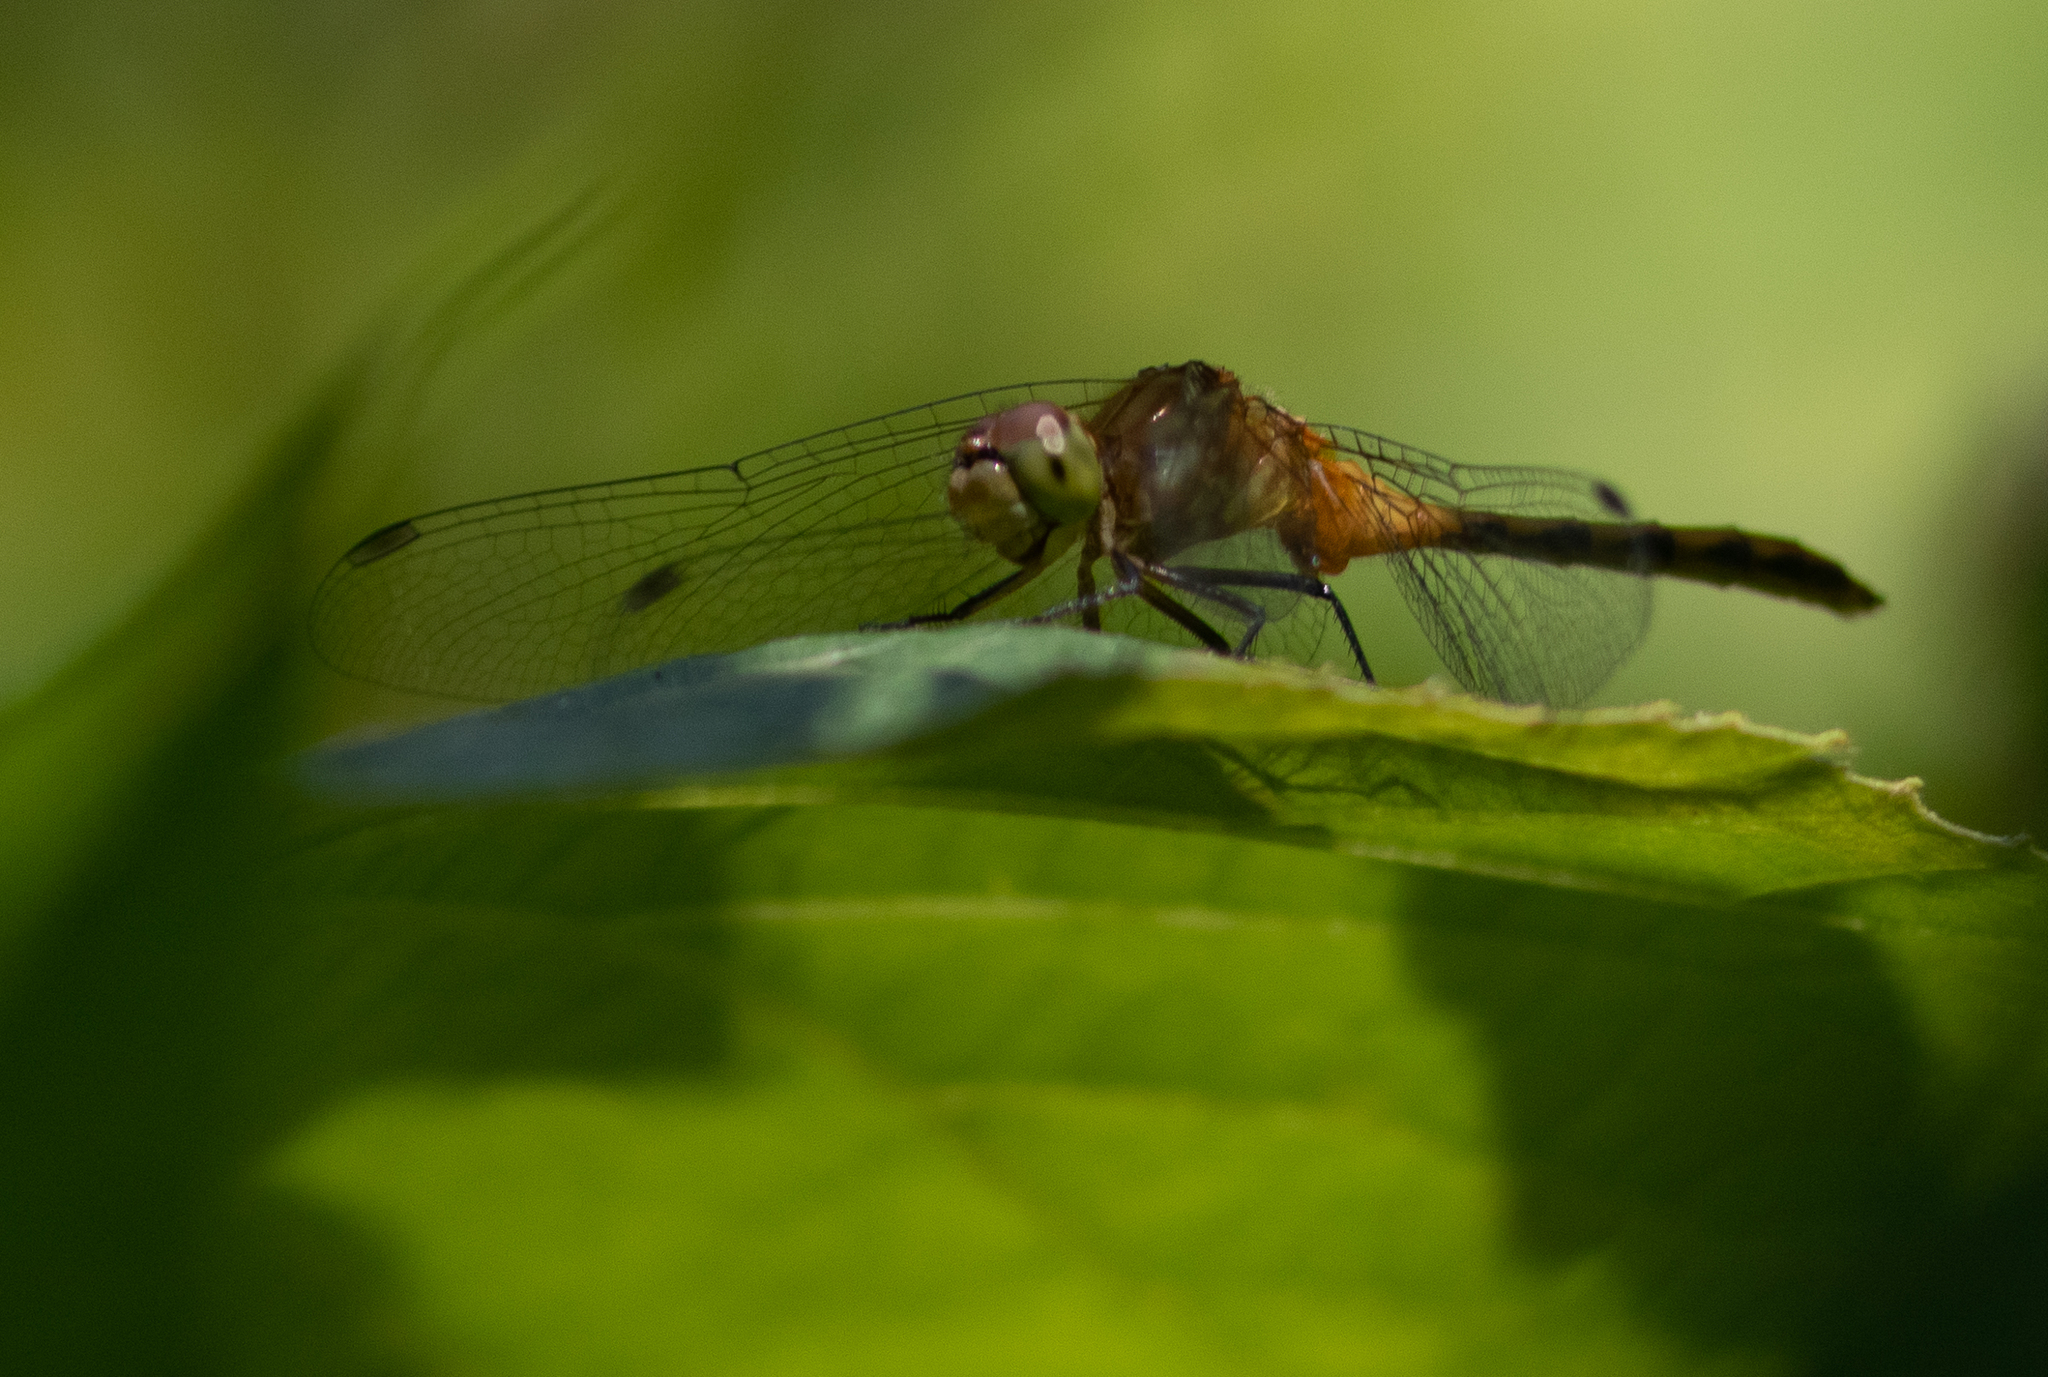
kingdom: Animalia
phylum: Arthropoda
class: Insecta
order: Odonata
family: Libellulidae
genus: Sympetrum
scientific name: Sympetrum
